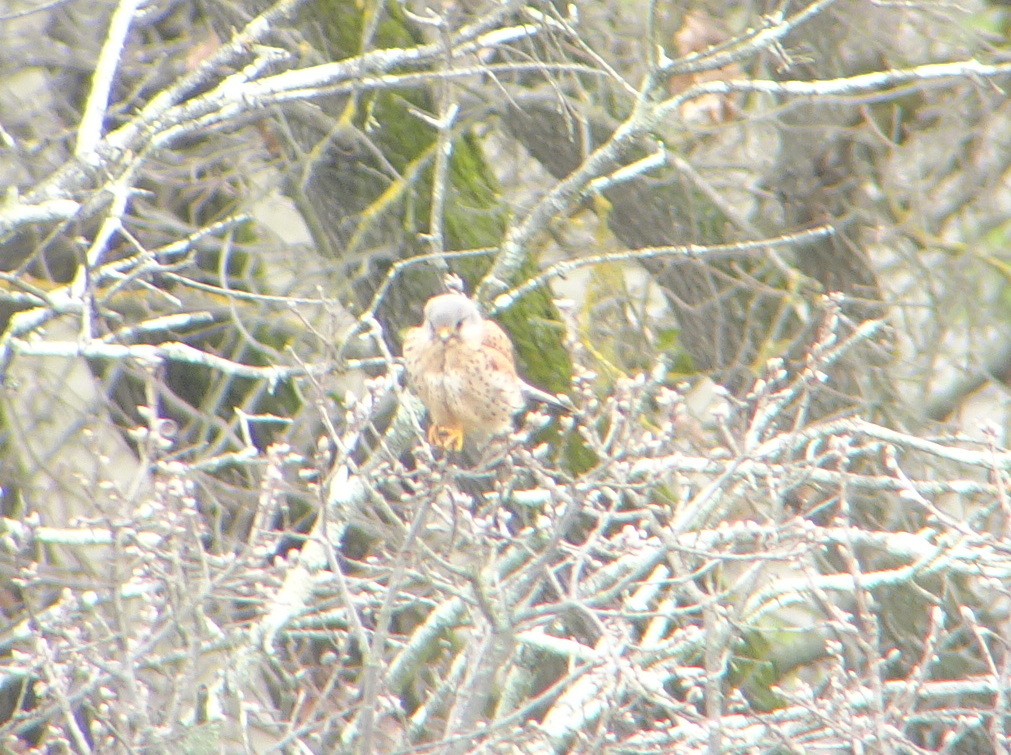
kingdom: Animalia
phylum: Chordata
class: Aves
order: Falconiformes
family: Falconidae
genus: Falco
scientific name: Falco tinnunculus
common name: Common kestrel
